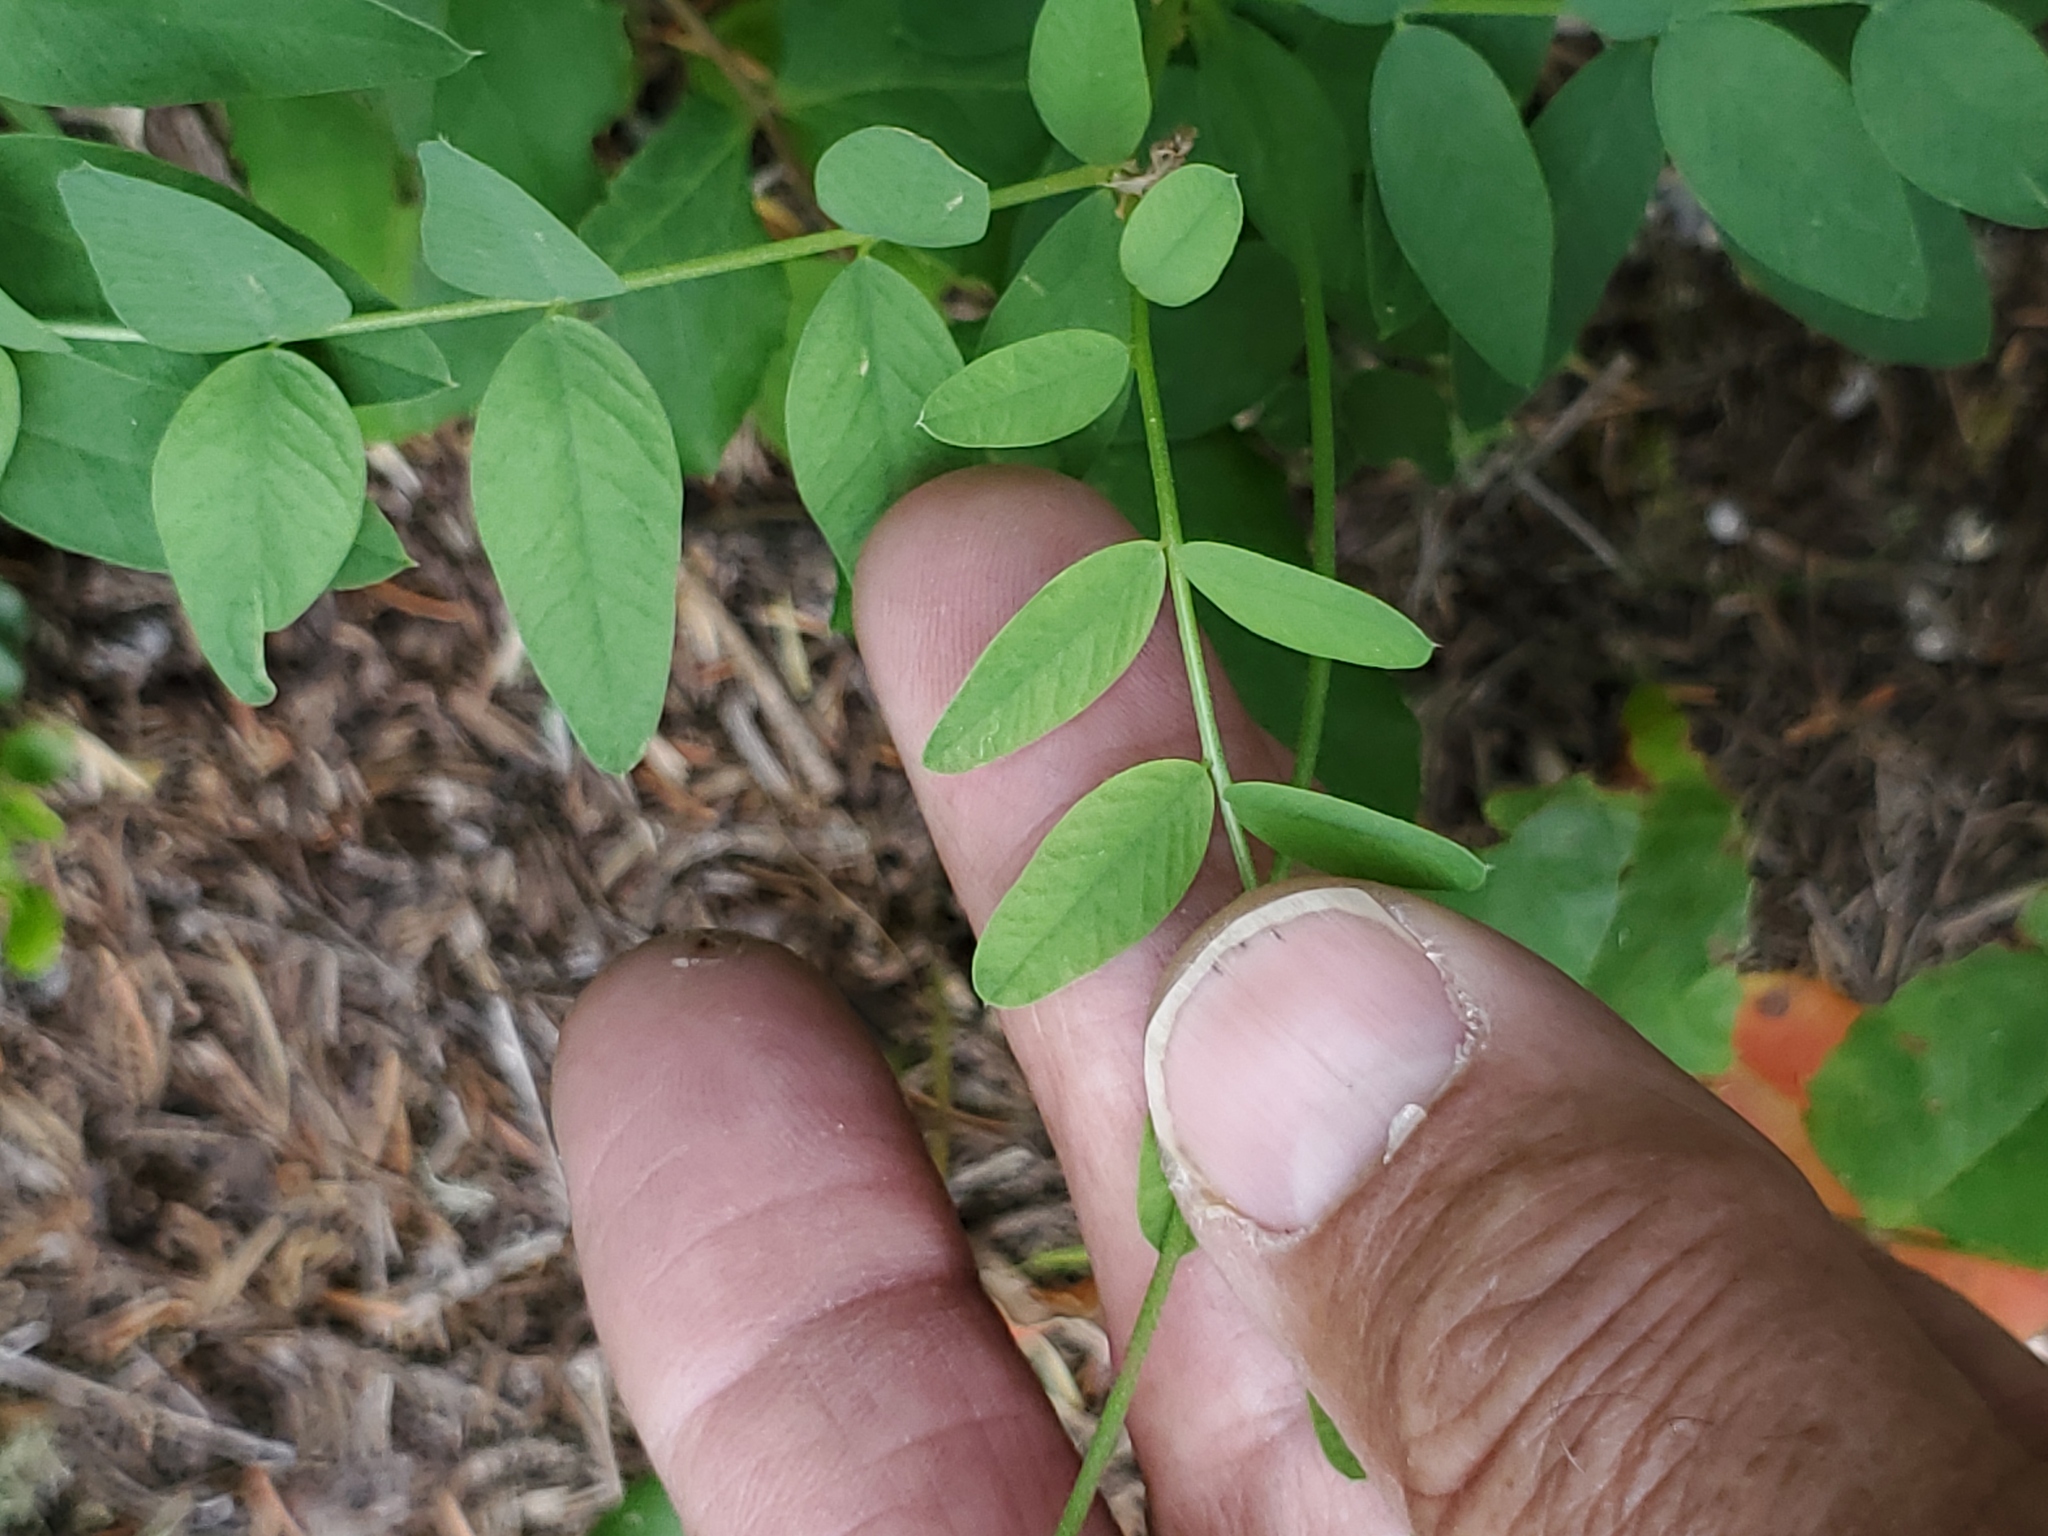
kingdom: Plantae
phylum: Tracheophyta
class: Magnoliopsida
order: Fabales
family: Fabaceae
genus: Hedysarum
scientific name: Hedysarum sulphurescens
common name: Sulphur hedysarum
